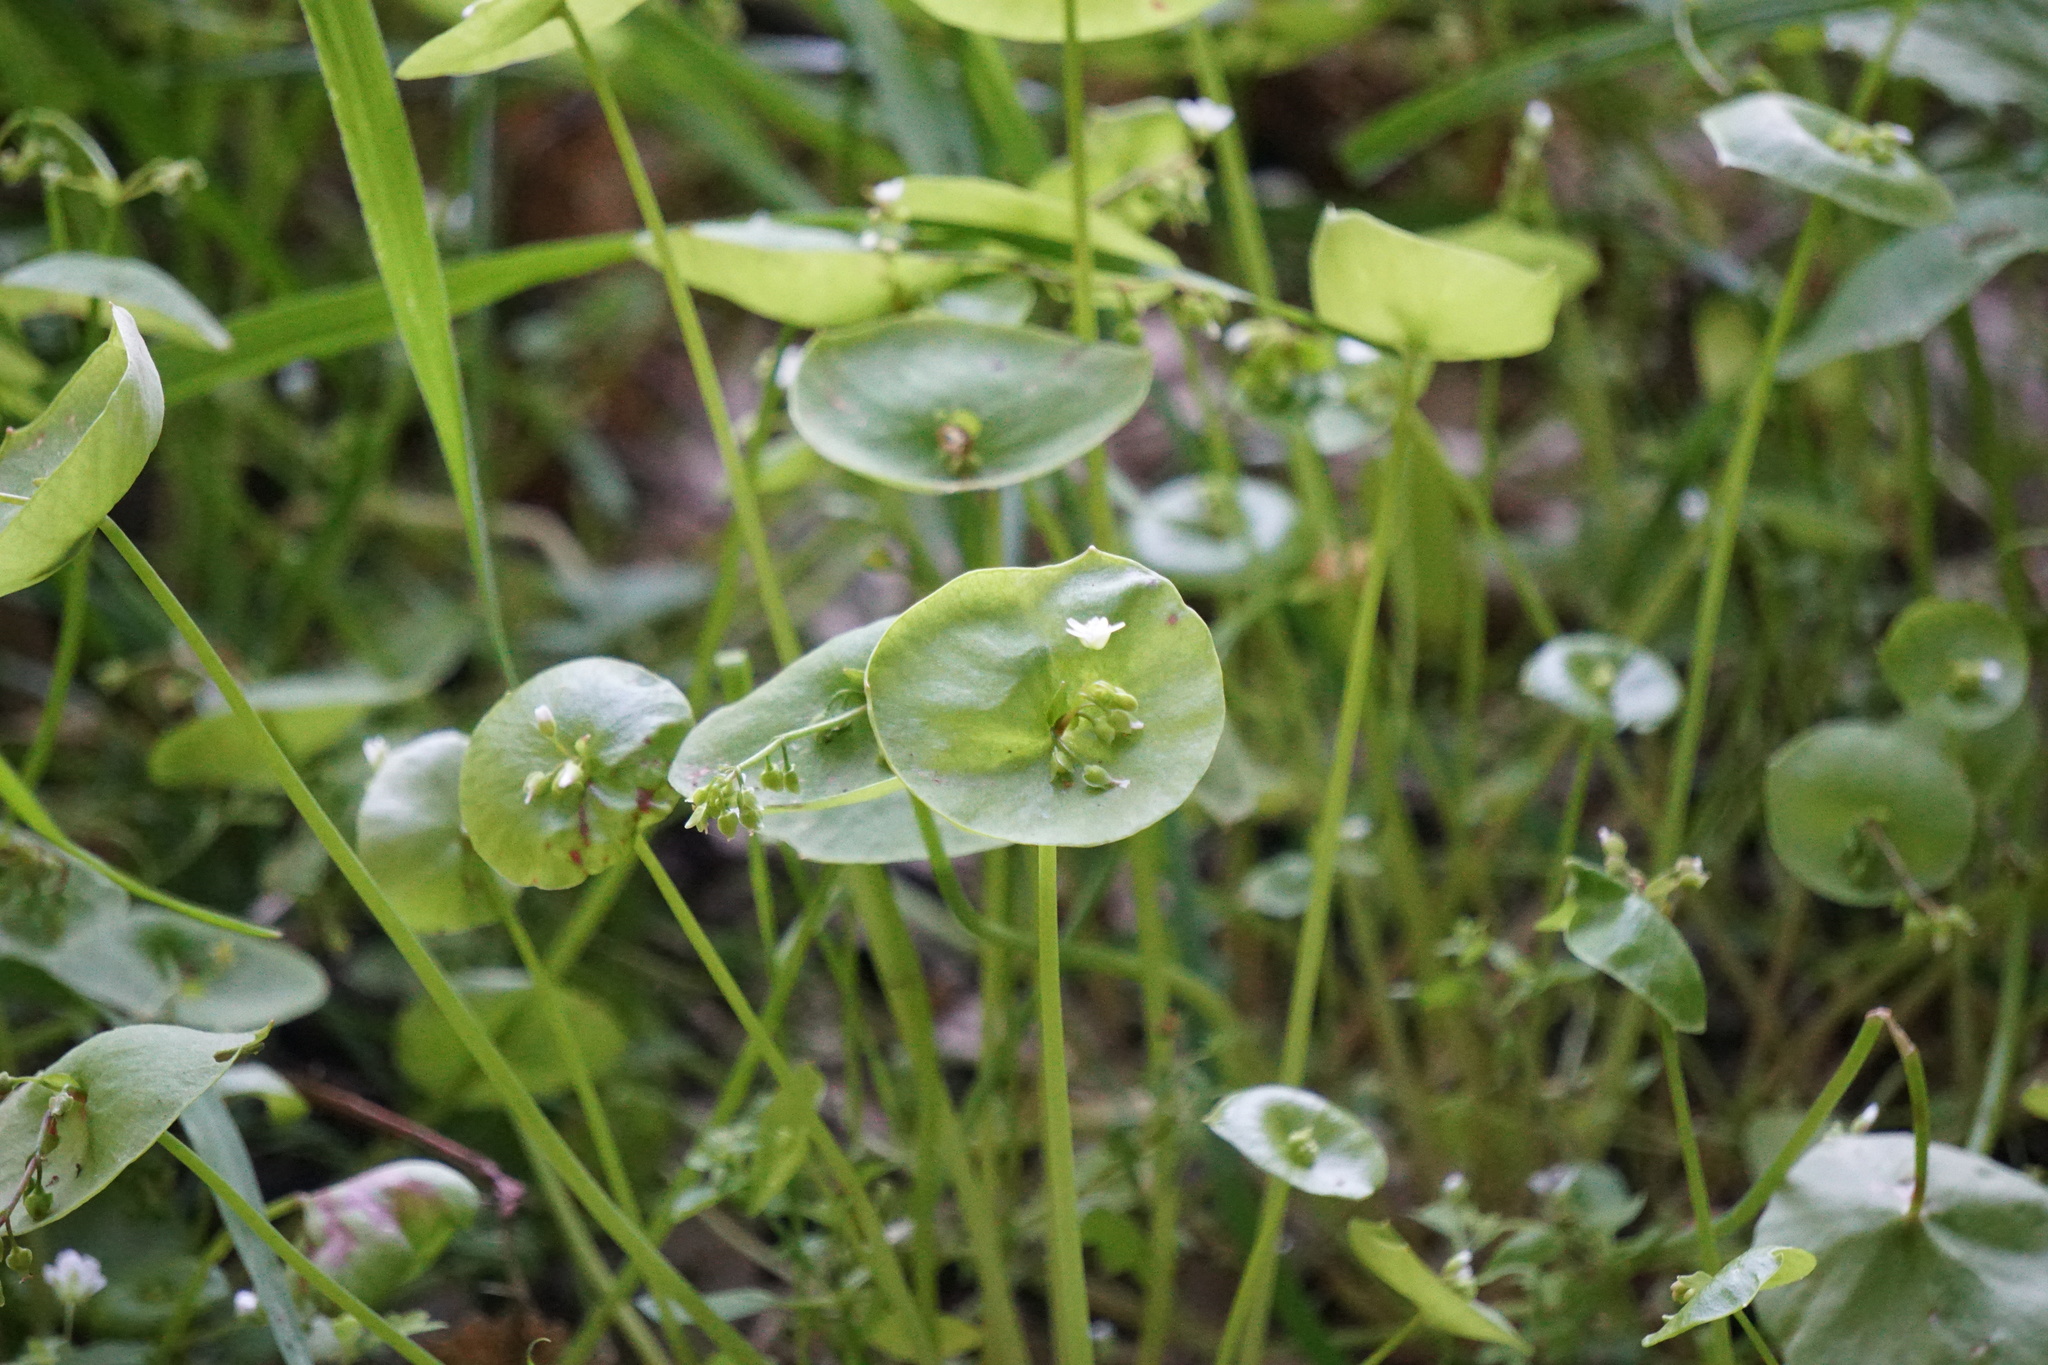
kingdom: Plantae
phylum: Tracheophyta
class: Magnoliopsida
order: Caryophyllales
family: Montiaceae
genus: Claytonia
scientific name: Claytonia perfoliata
